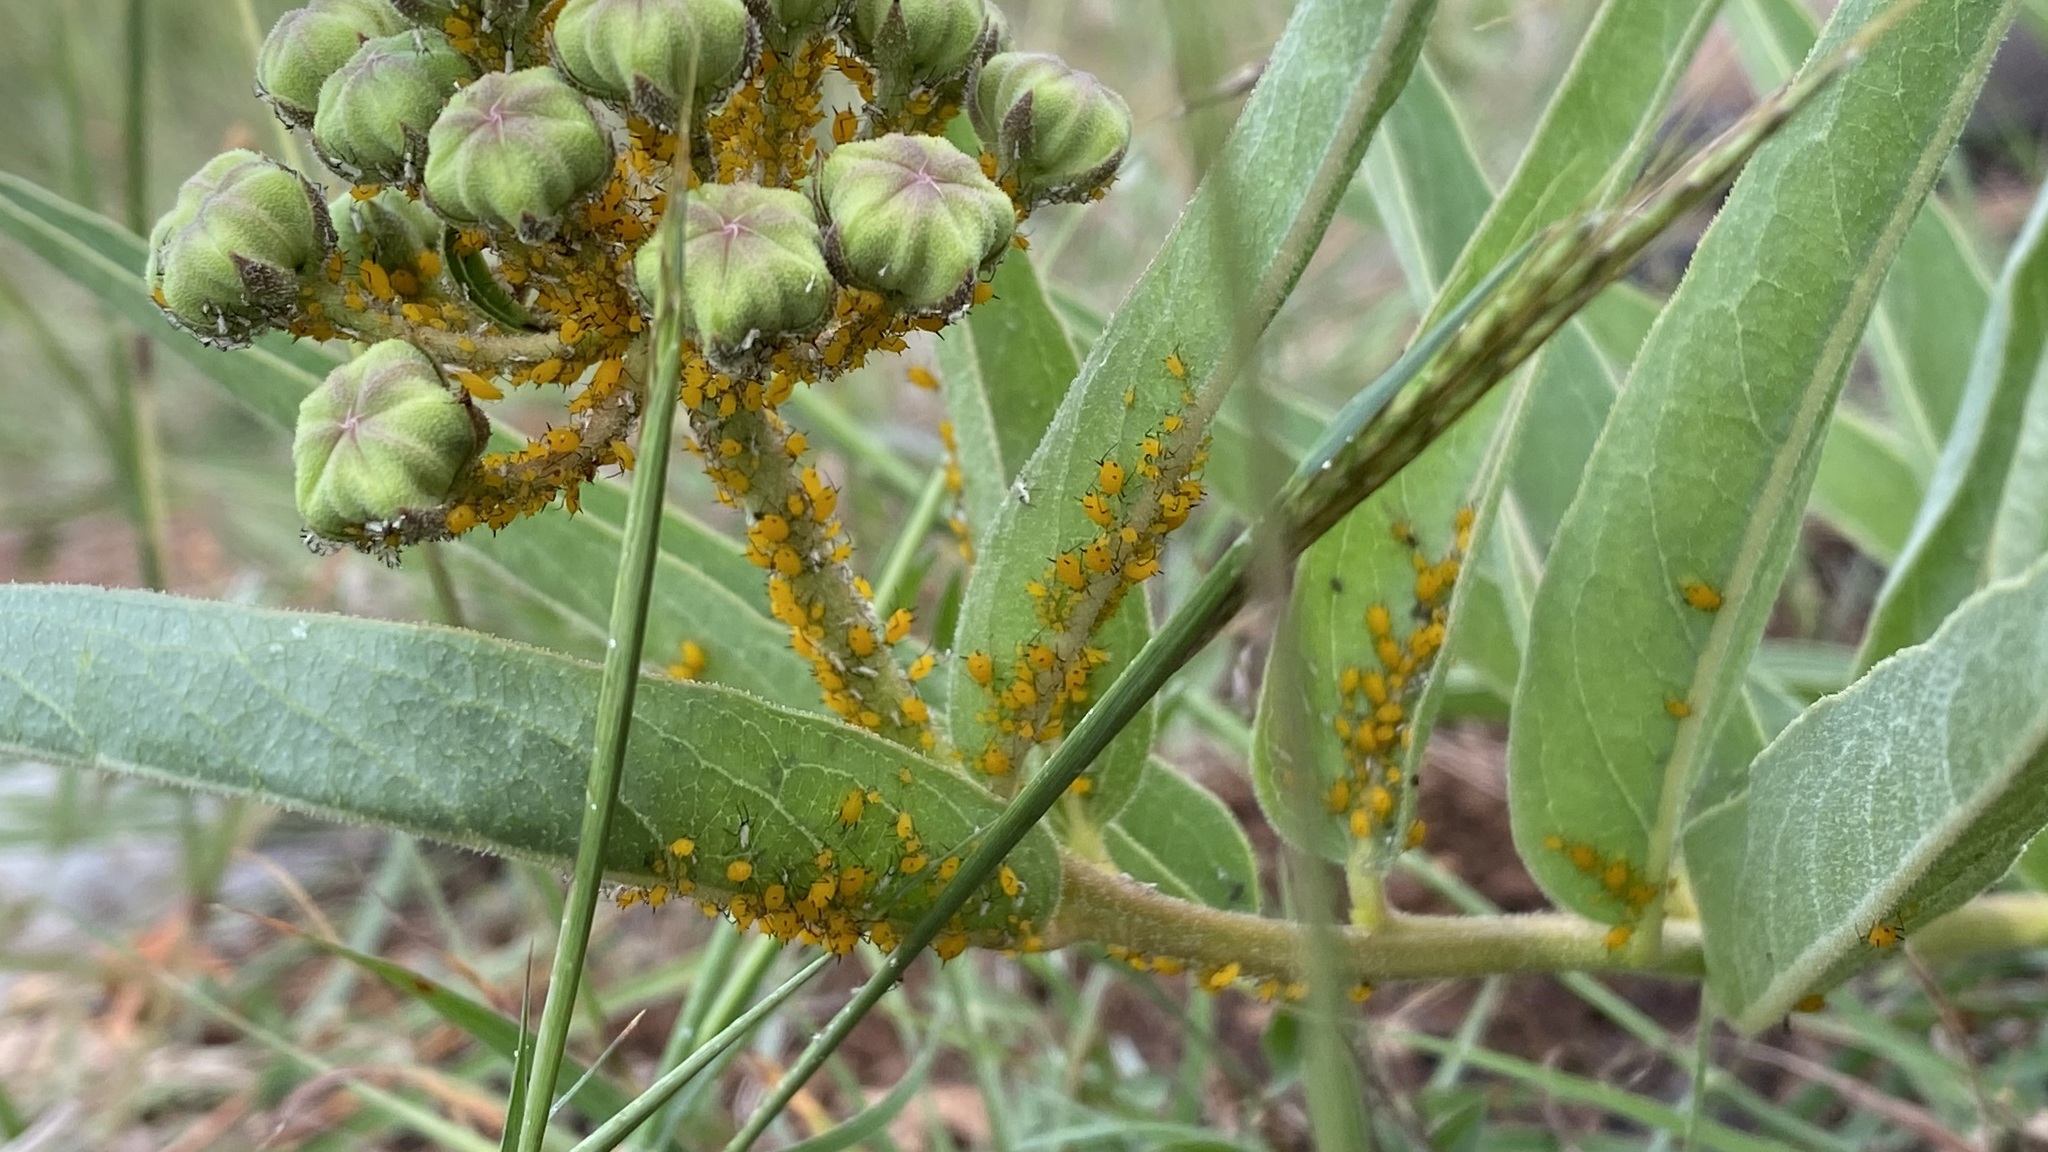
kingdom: Animalia
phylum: Arthropoda
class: Insecta
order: Hemiptera
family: Aphididae
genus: Aphis
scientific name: Aphis nerii
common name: Oleander aphid
